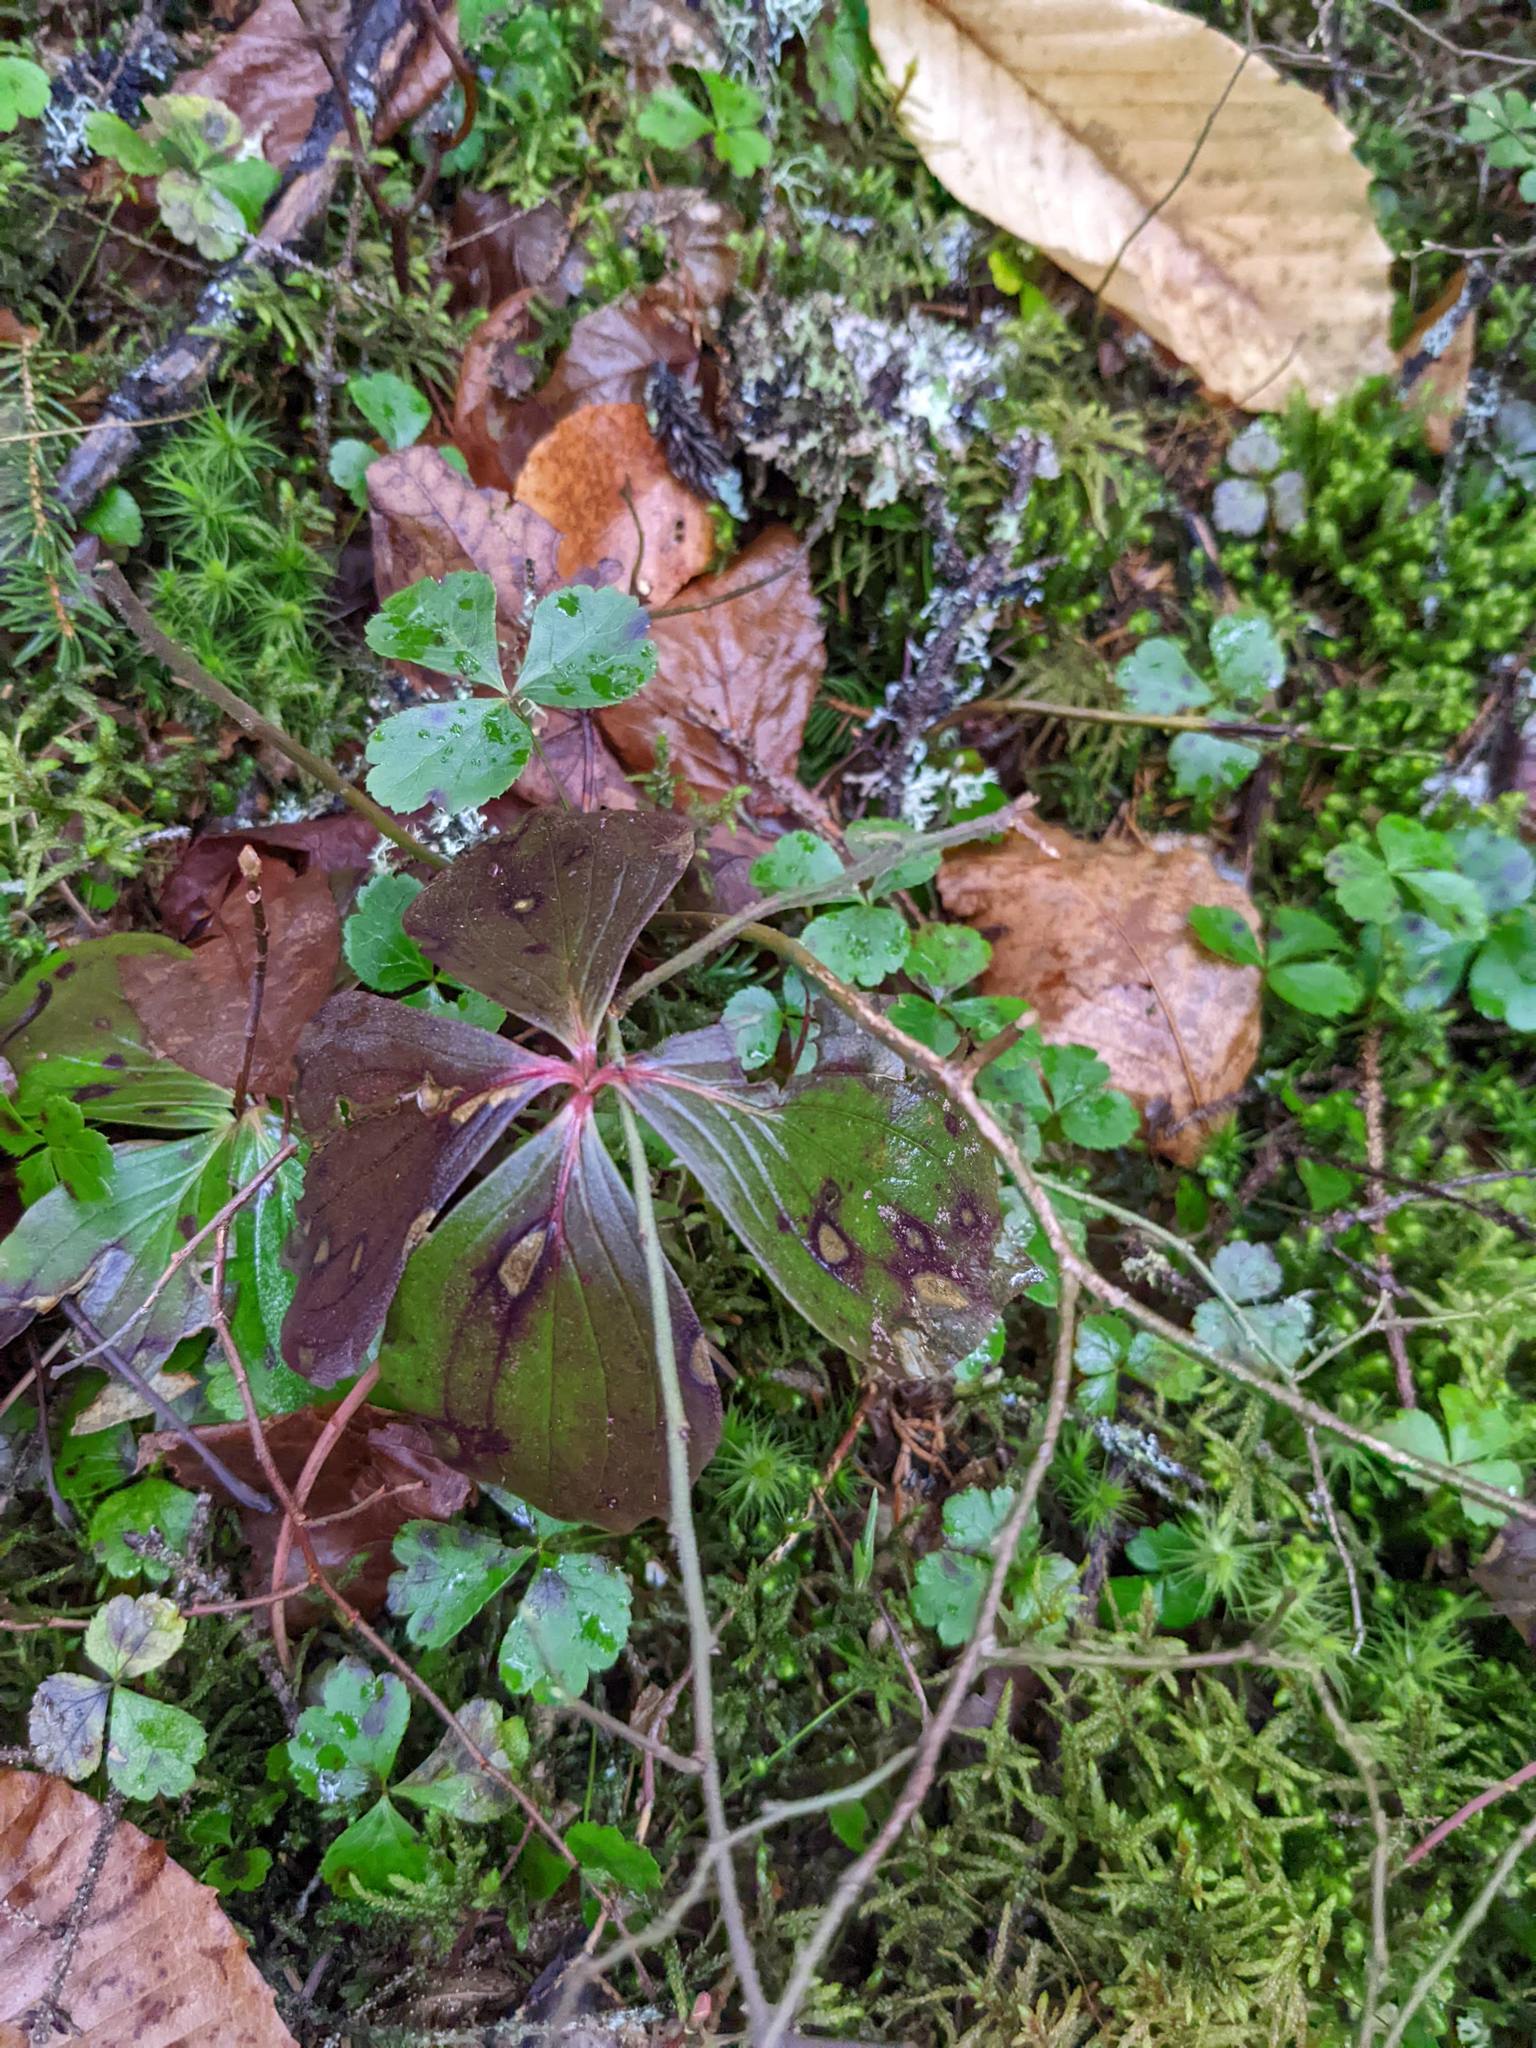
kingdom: Plantae
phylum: Tracheophyta
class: Magnoliopsida
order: Cornales
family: Cornaceae
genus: Cornus
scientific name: Cornus canadensis
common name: Creeping dogwood
